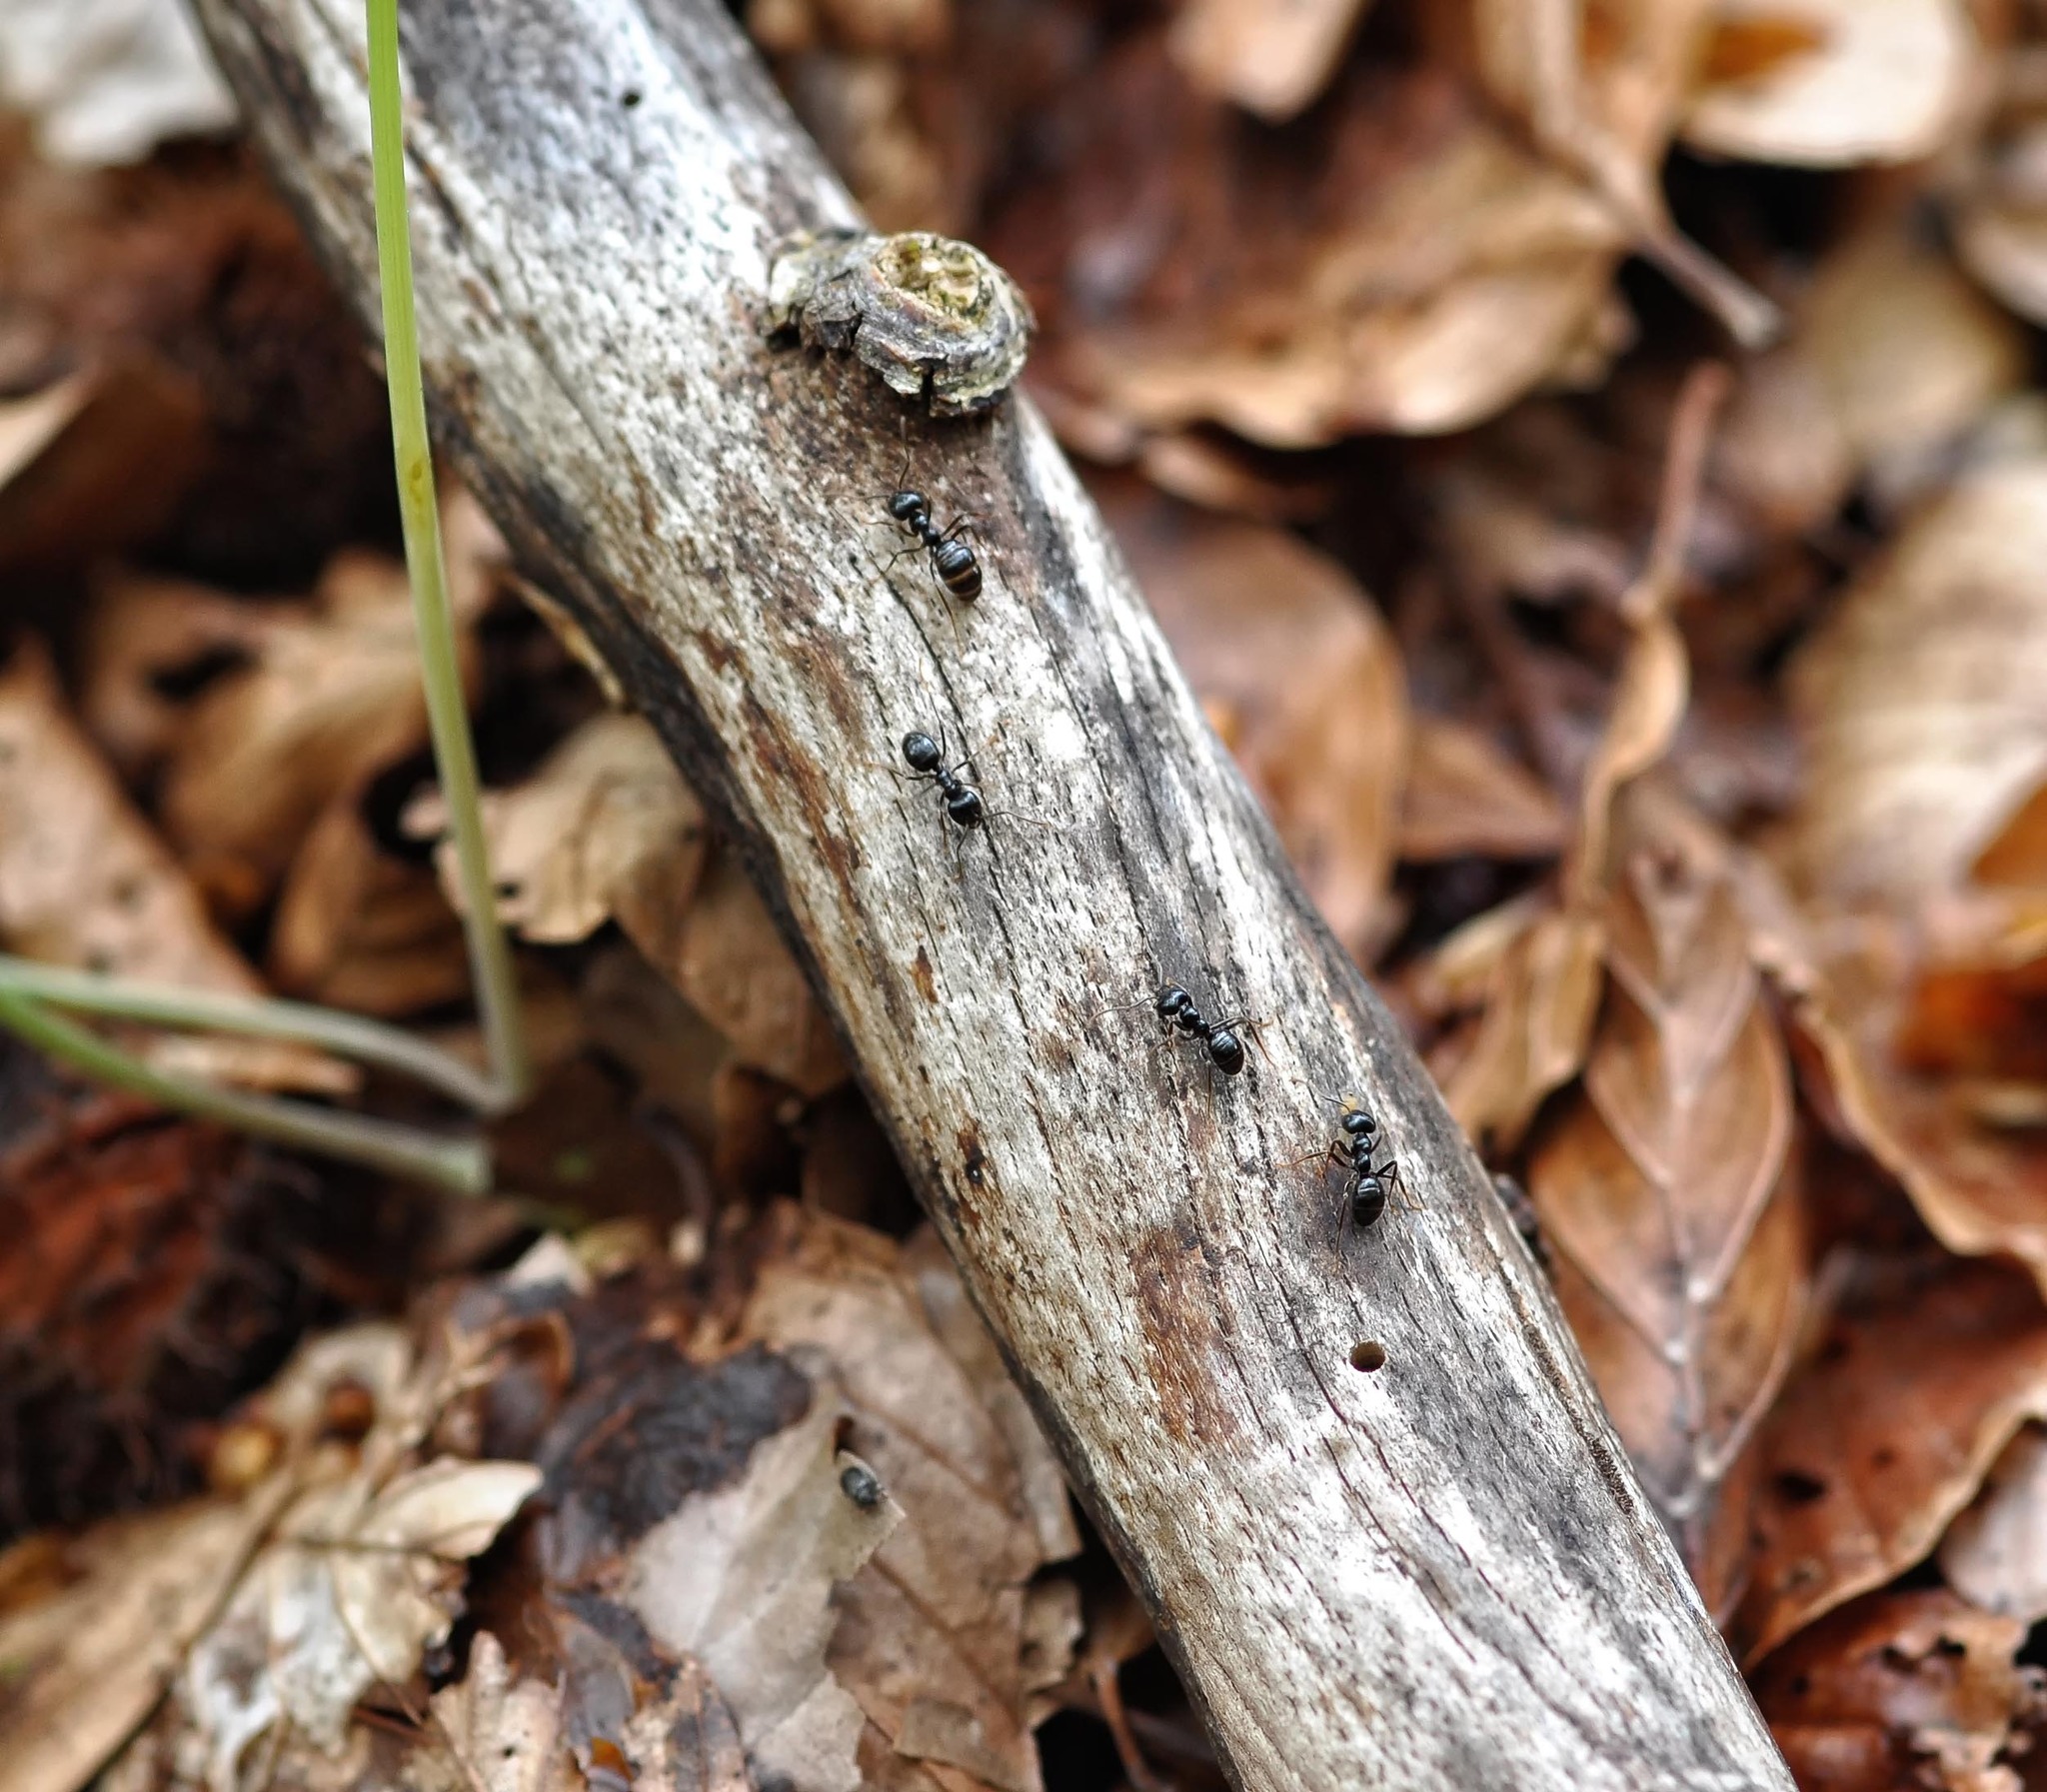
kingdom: Animalia
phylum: Arthropoda
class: Insecta
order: Hymenoptera
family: Formicidae
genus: Lasius
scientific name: Lasius fuliginosus
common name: Jet ant
